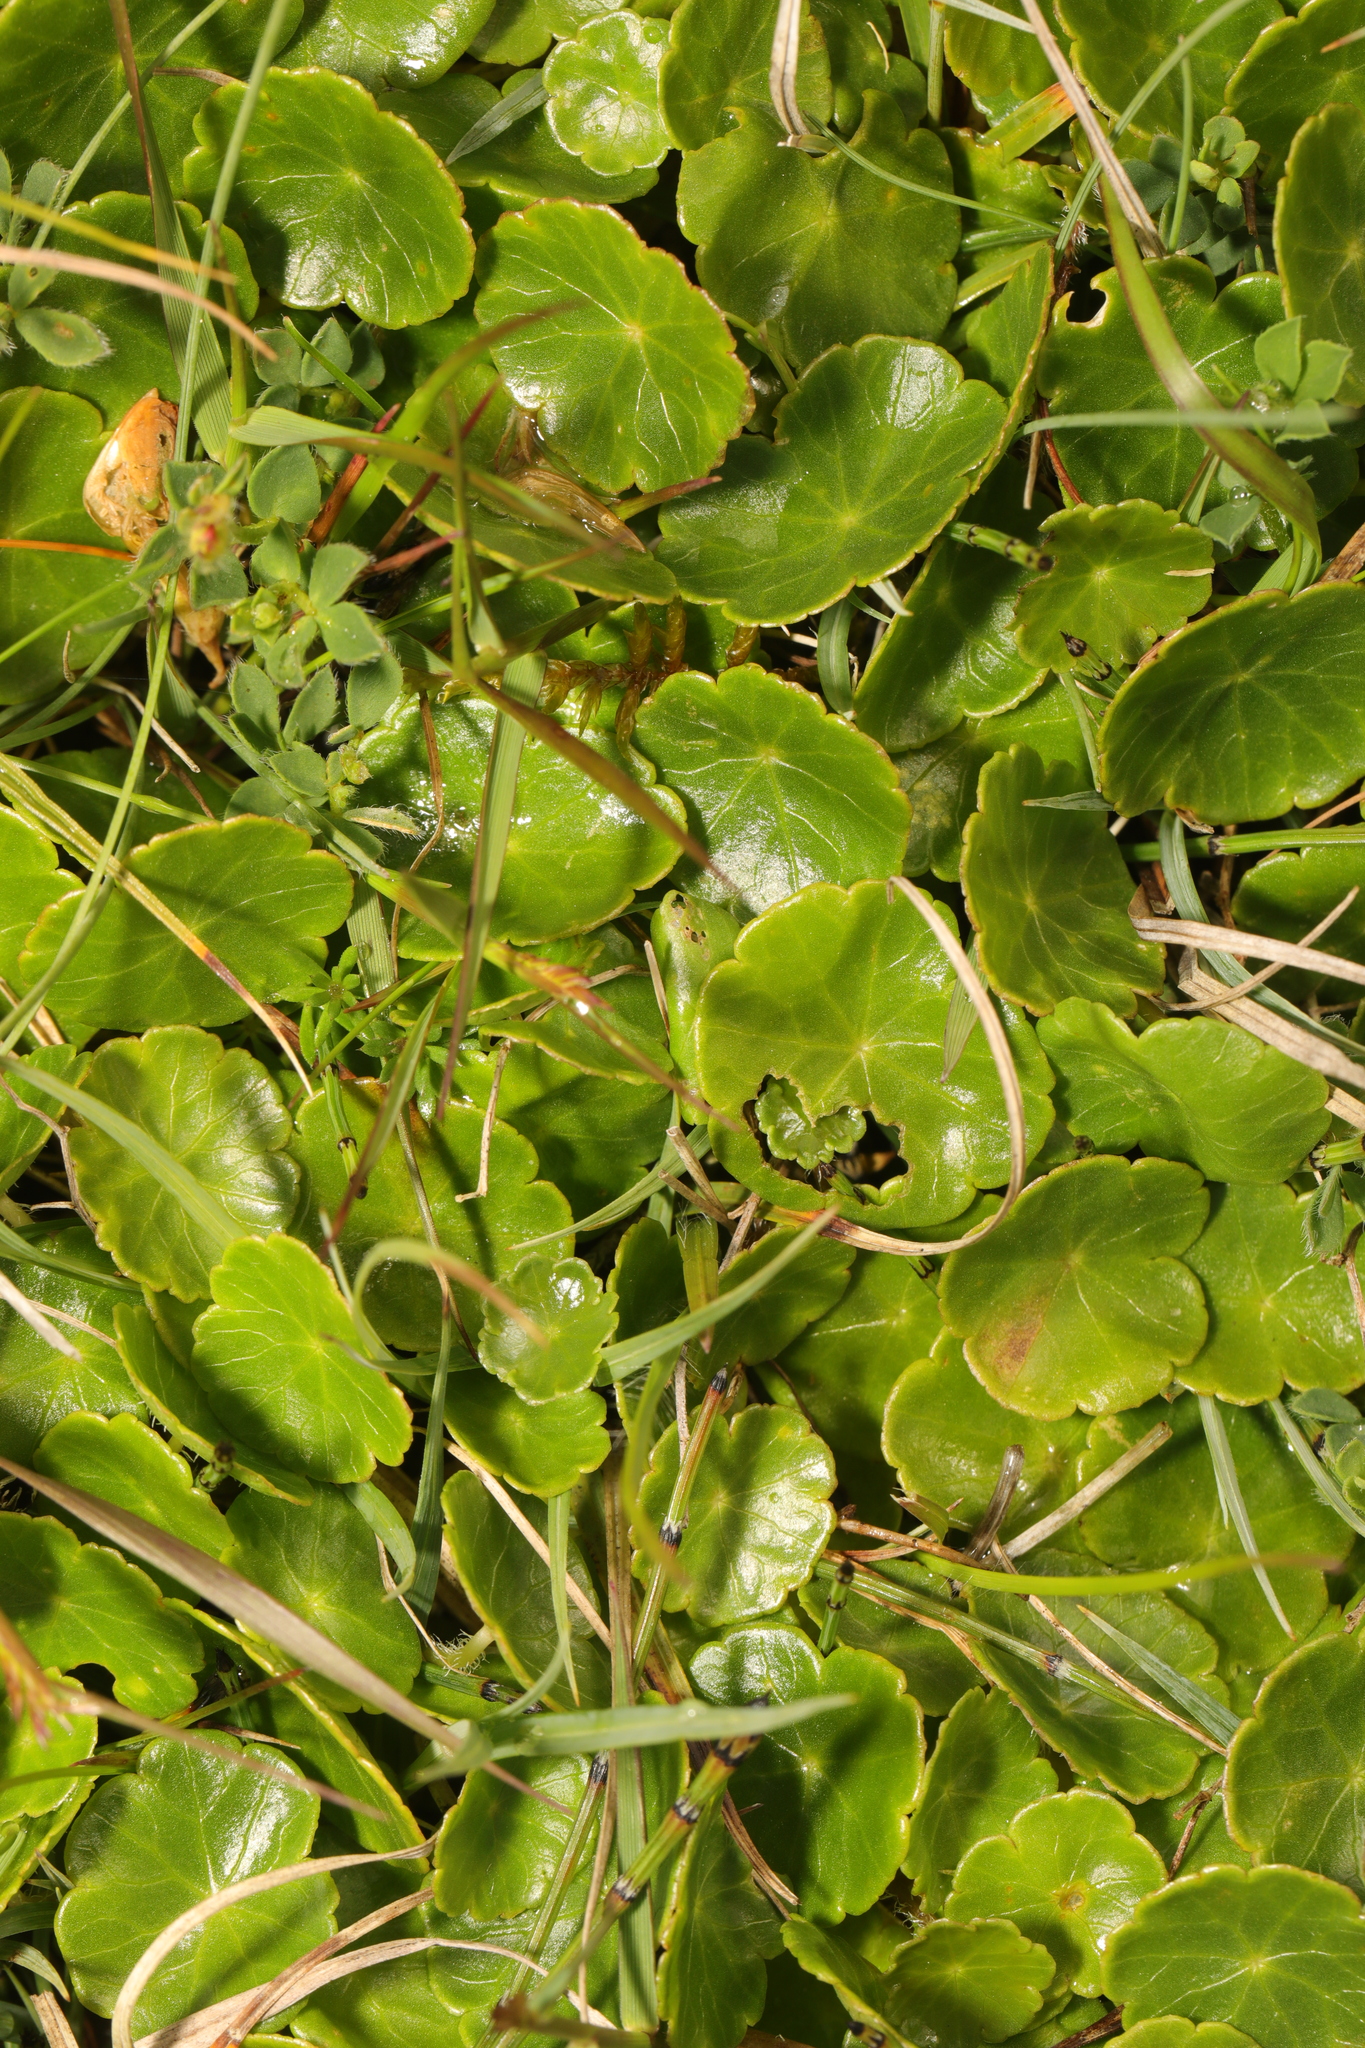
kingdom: Plantae
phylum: Tracheophyta
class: Magnoliopsida
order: Apiales
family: Araliaceae
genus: Hydrocotyle
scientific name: Hydrocotyle vulgaris
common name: Marsh pennywort
